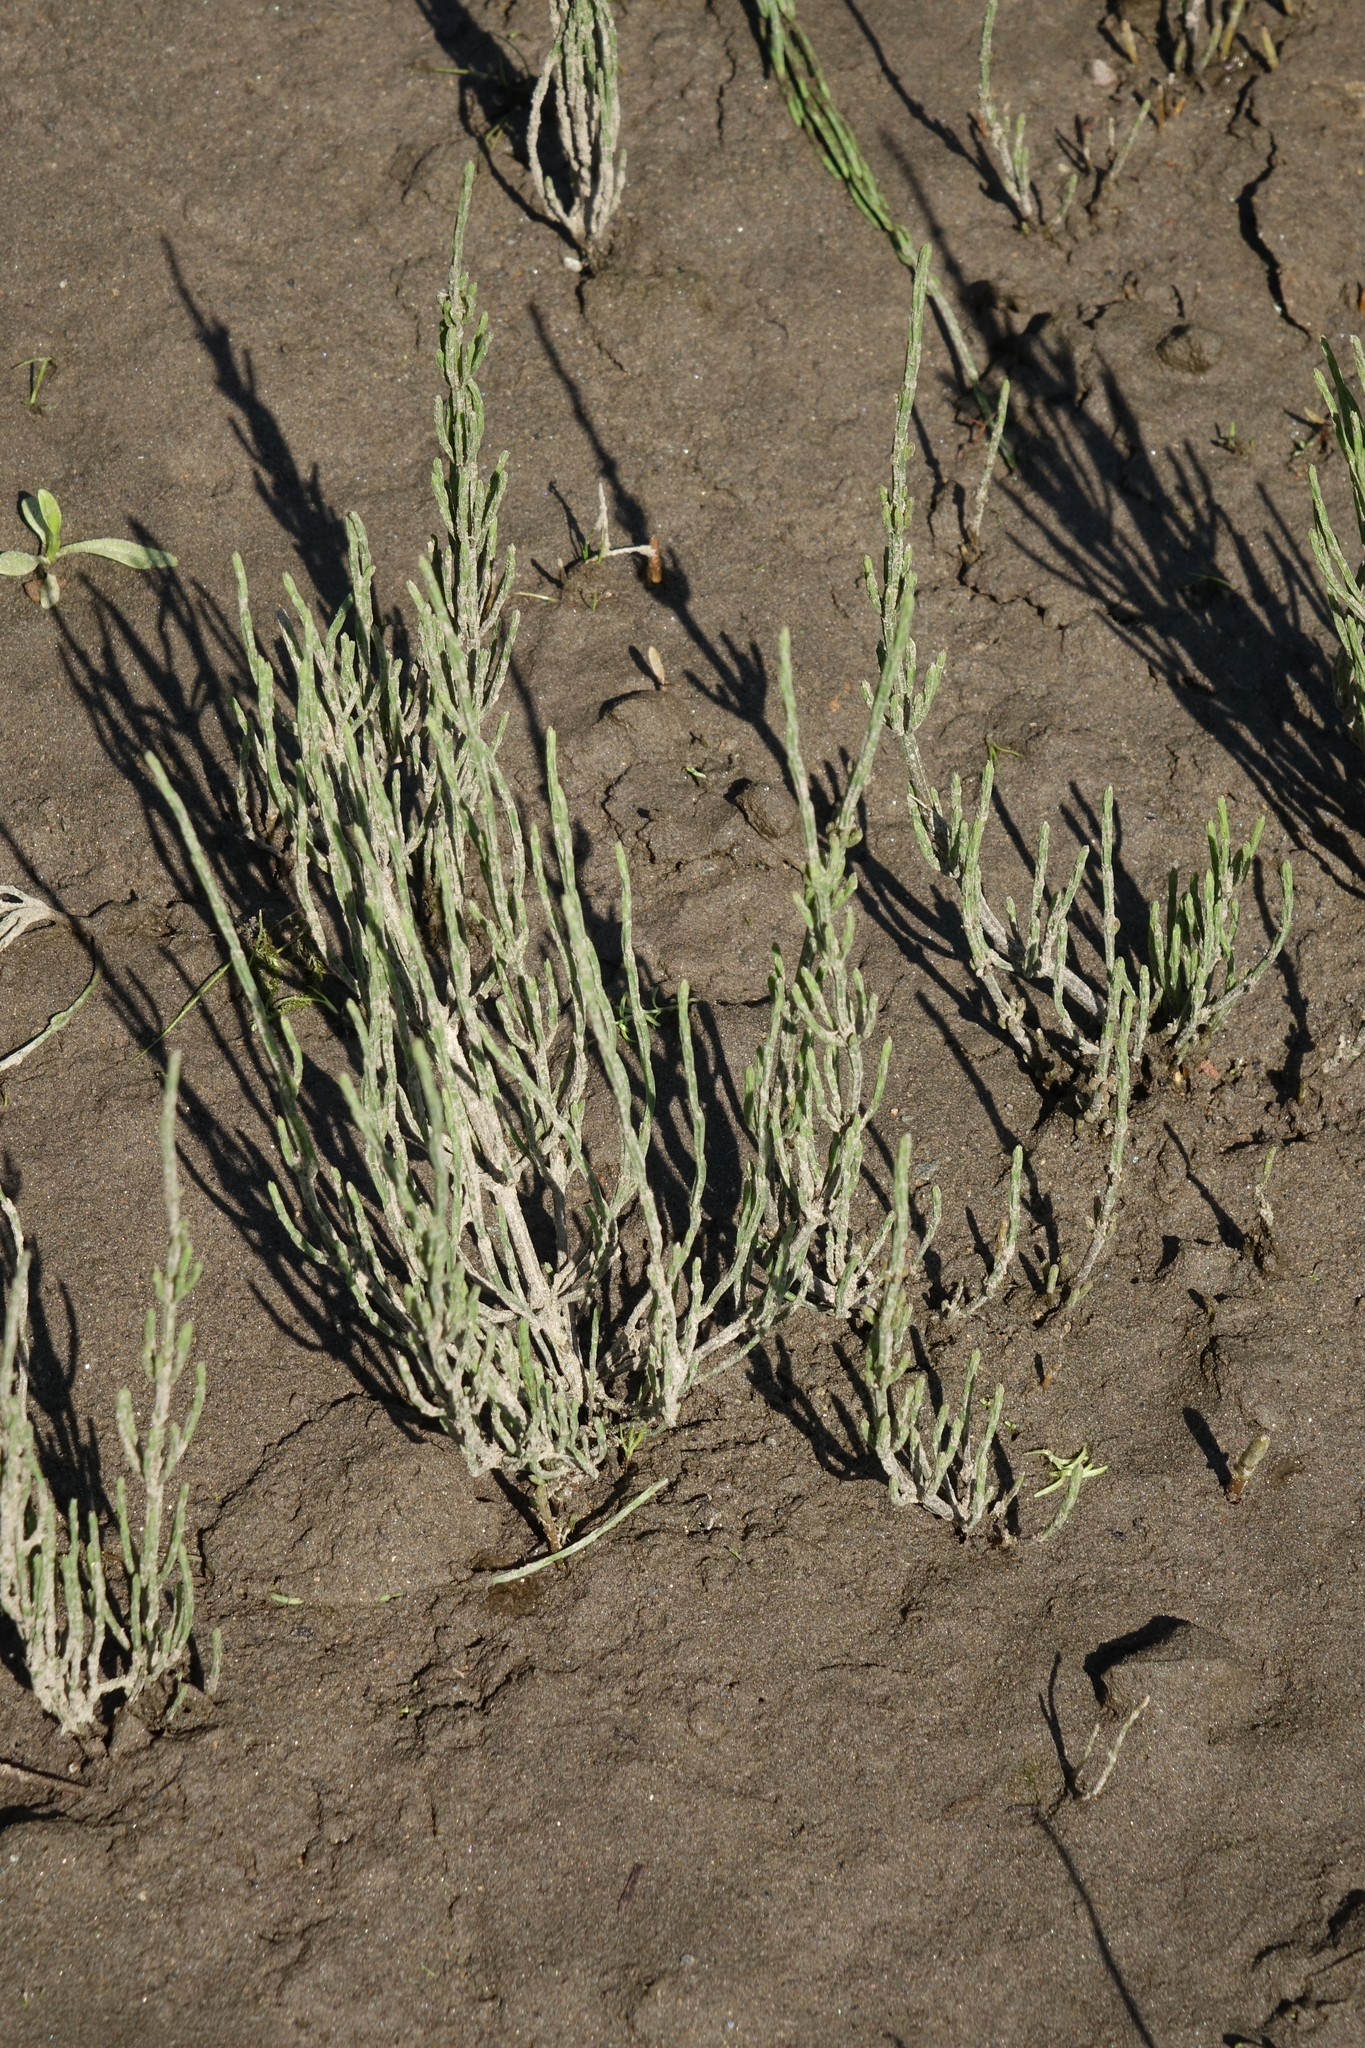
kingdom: Plantae
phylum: Tracheophyta
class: Polypodiopsida
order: Equisetales
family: Equisetaceae
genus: Equisetum
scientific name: Equisetum arvense
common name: Field horsetail
